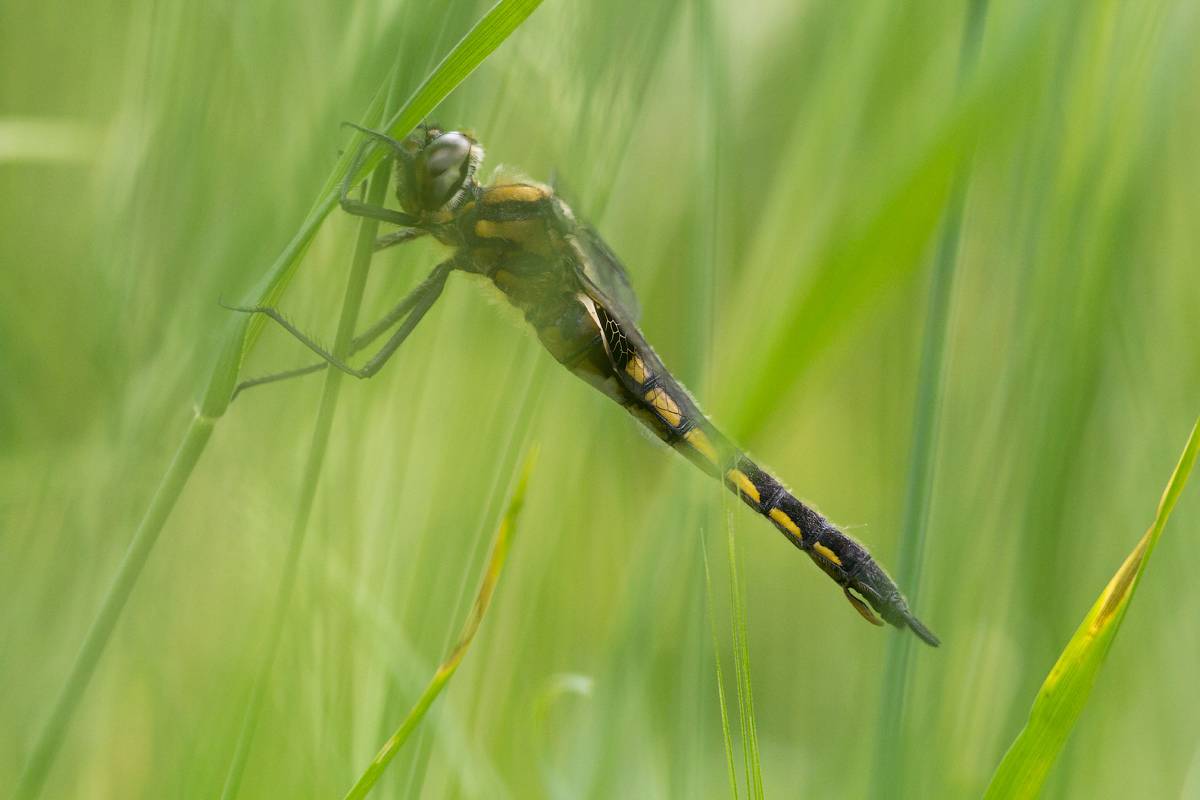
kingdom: Animalia
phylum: Arthropoda
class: Insecta
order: Odonata
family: Corduliidae
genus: Epitheca
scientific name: Epitheca bimaculata
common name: Eurasian baskettail
